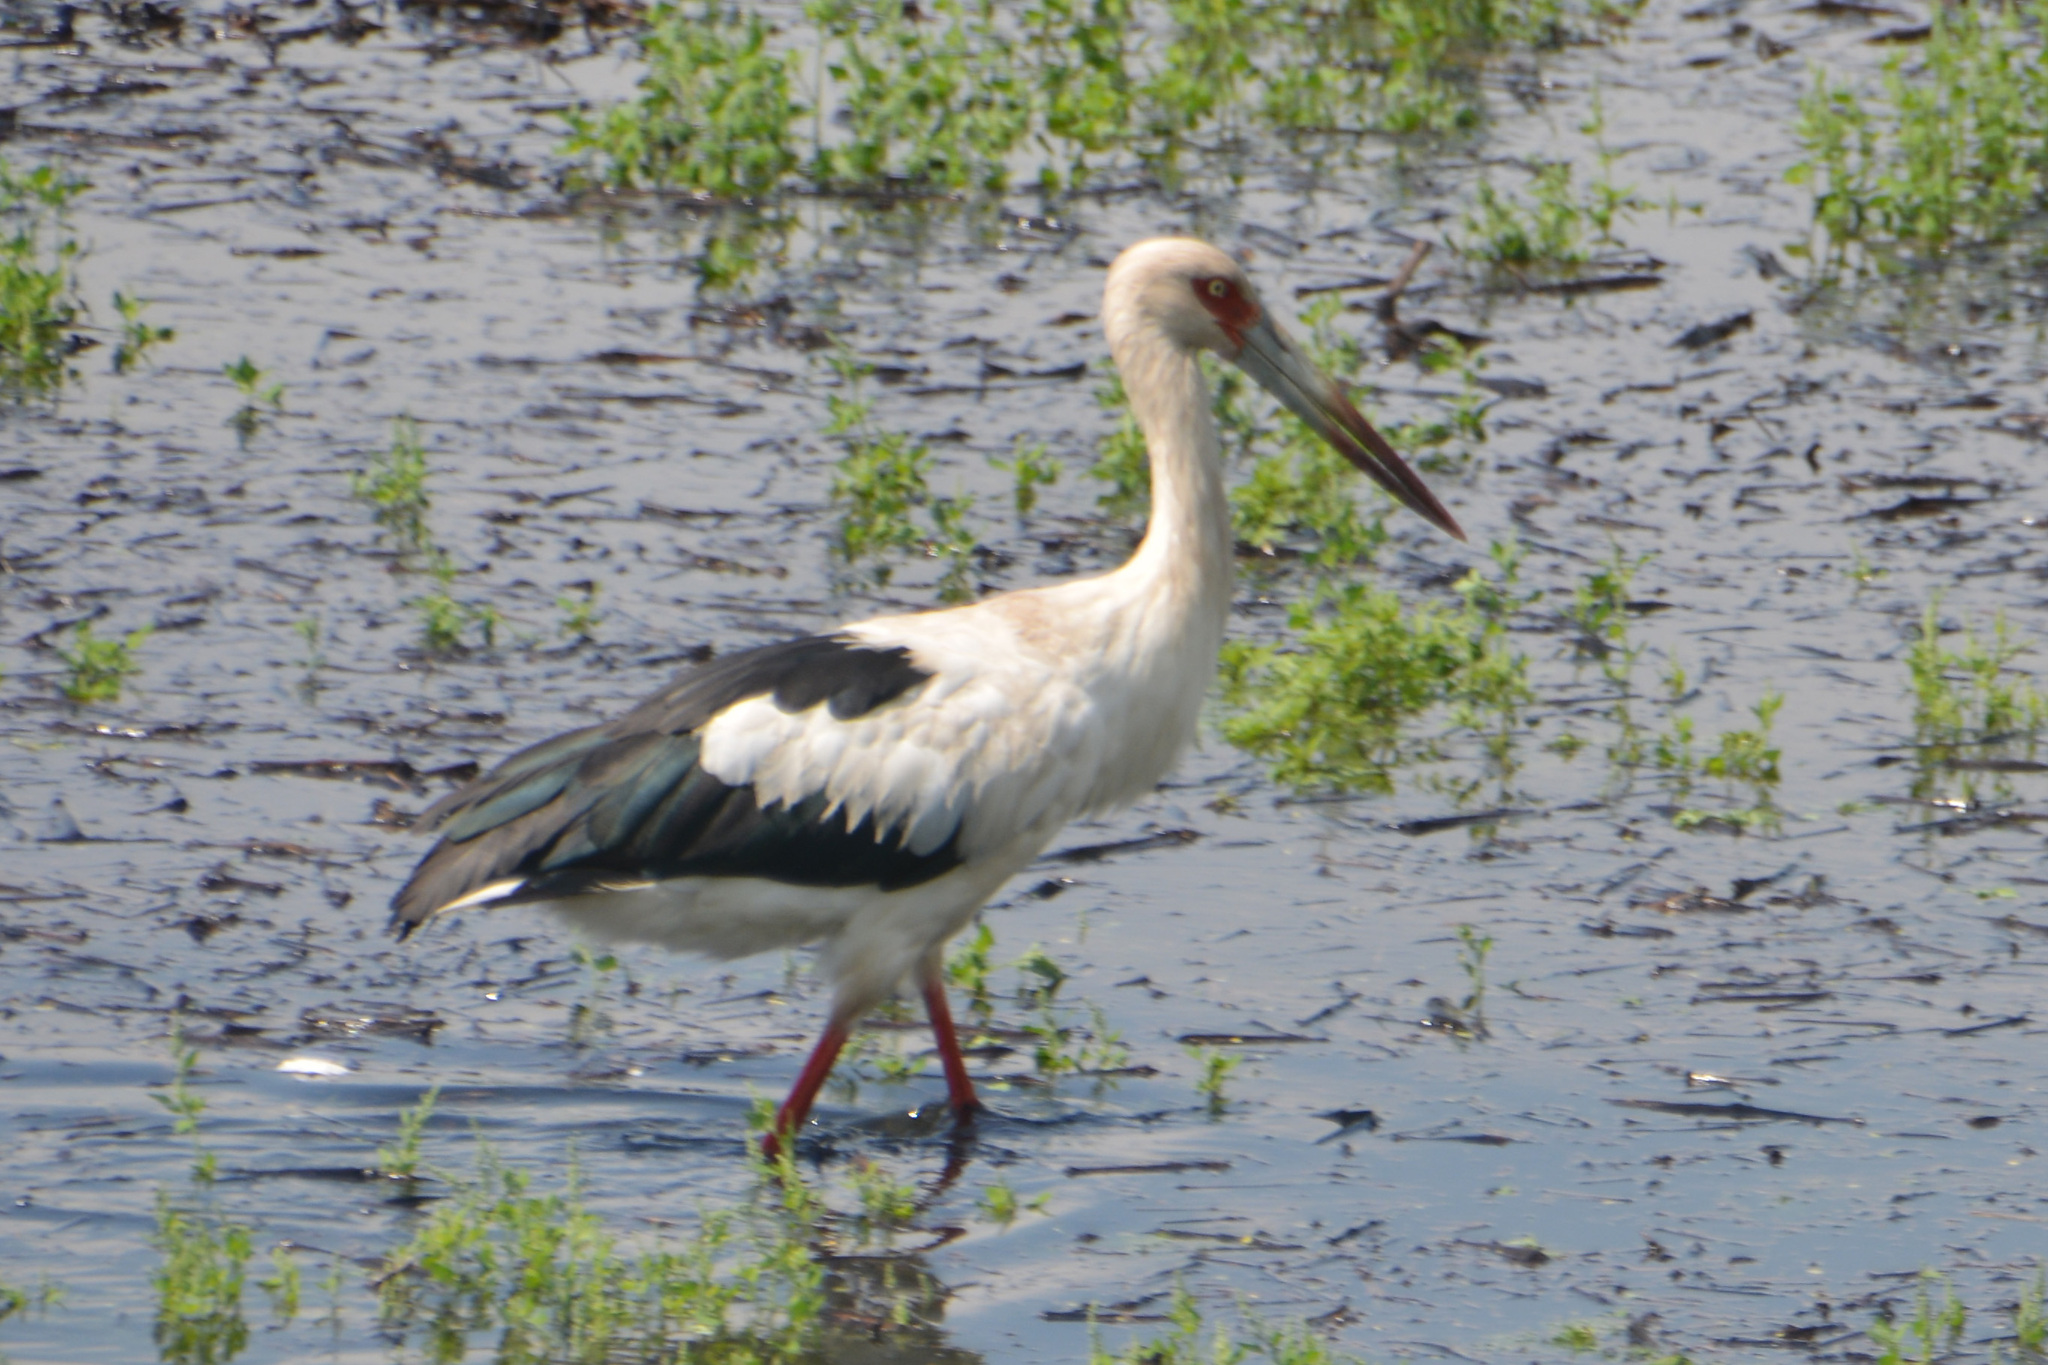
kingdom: Animalia
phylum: Chordata
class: Aves
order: Ciconiiformes
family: Ciconiidae
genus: Ciconia
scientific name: Ciconia maguari
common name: Maguari stork
